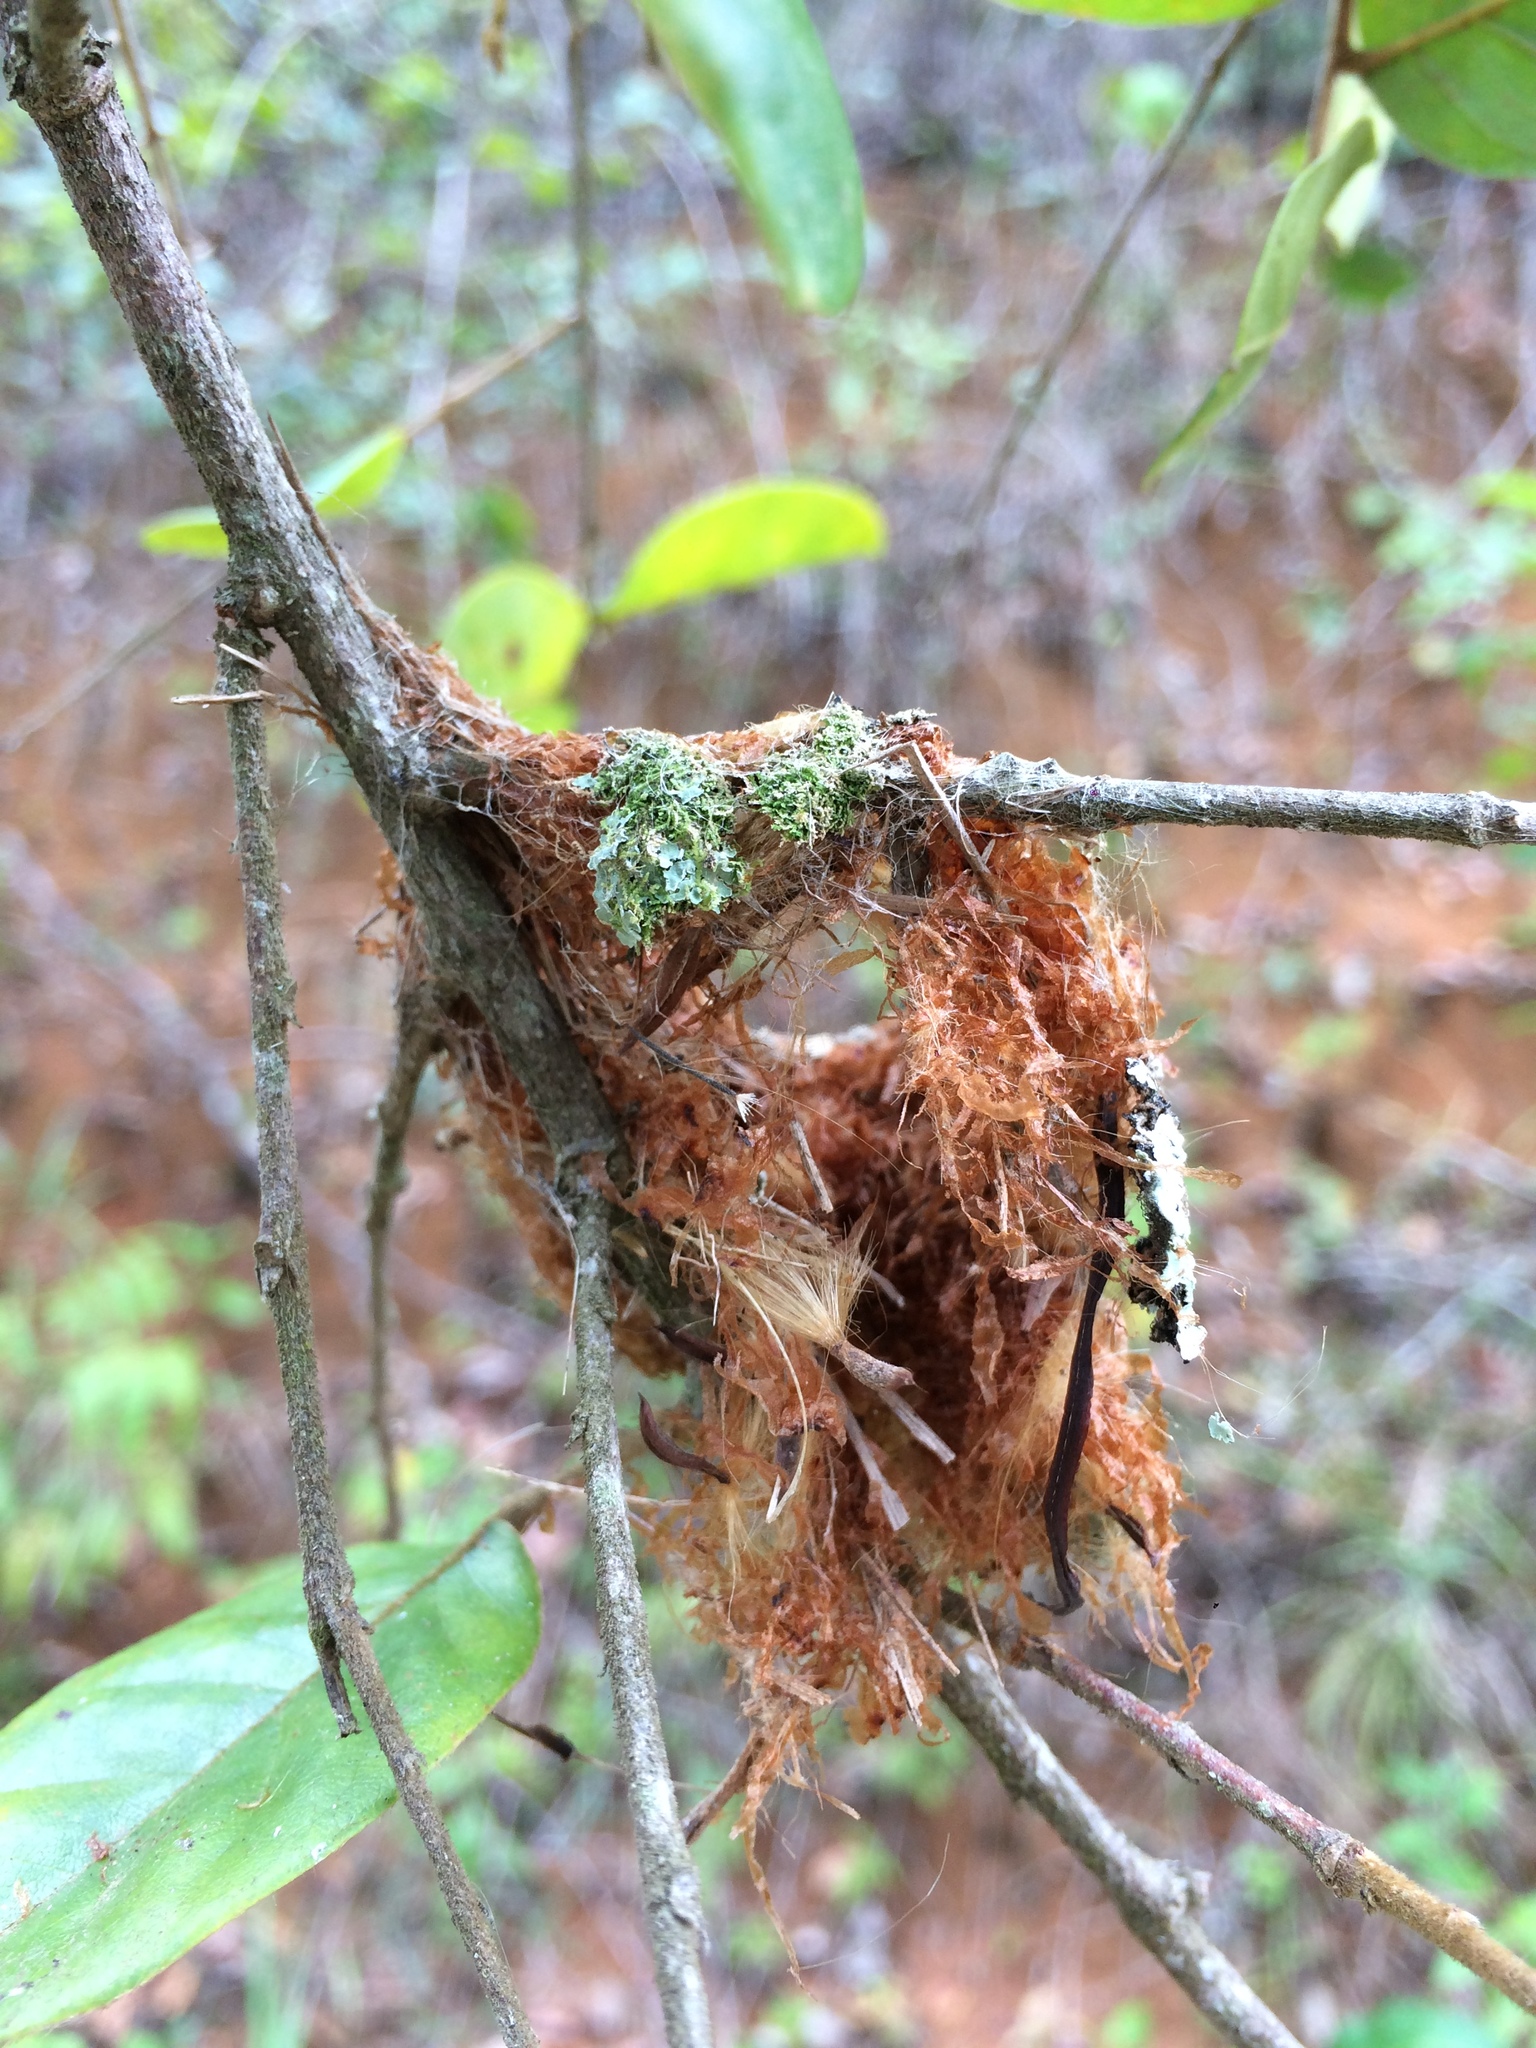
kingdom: Animalia
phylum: Chordata
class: Aves
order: Apodiformes
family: Trochilidae
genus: Chlorestes
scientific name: Chlorestes notata
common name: Blue-chinned sapphire
